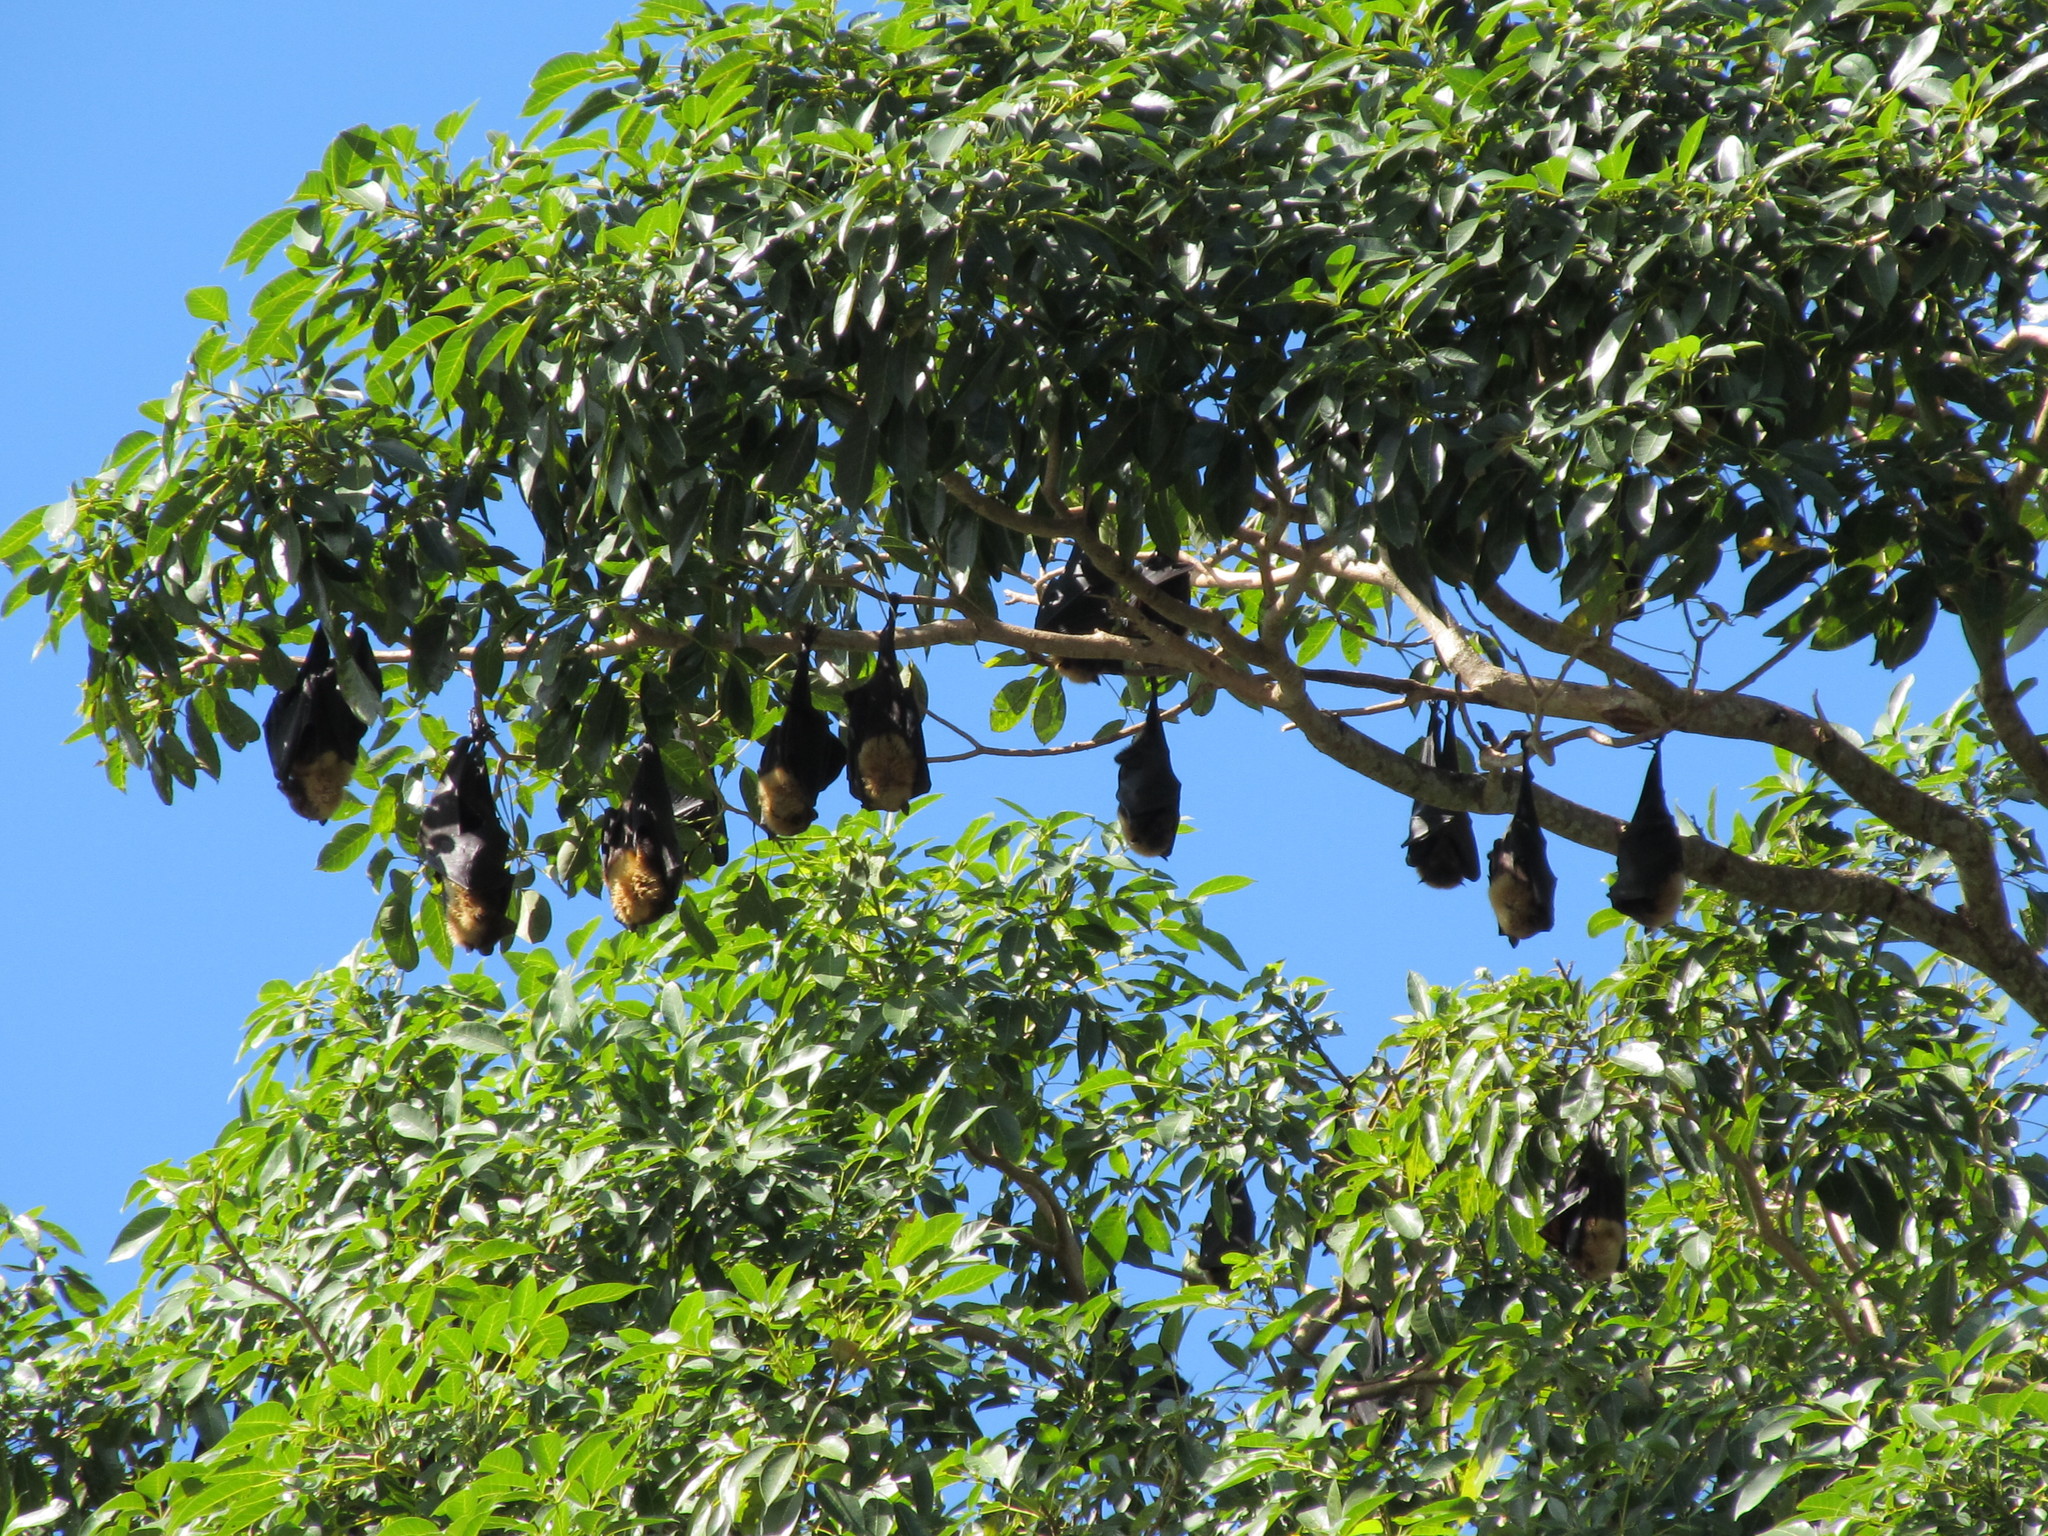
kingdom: Animalia
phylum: Chordata
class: Mammalia
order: Chiroptera
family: Pteropodidae
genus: Pteropus
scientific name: Pteropus tonganus
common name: Pacific flying fox
